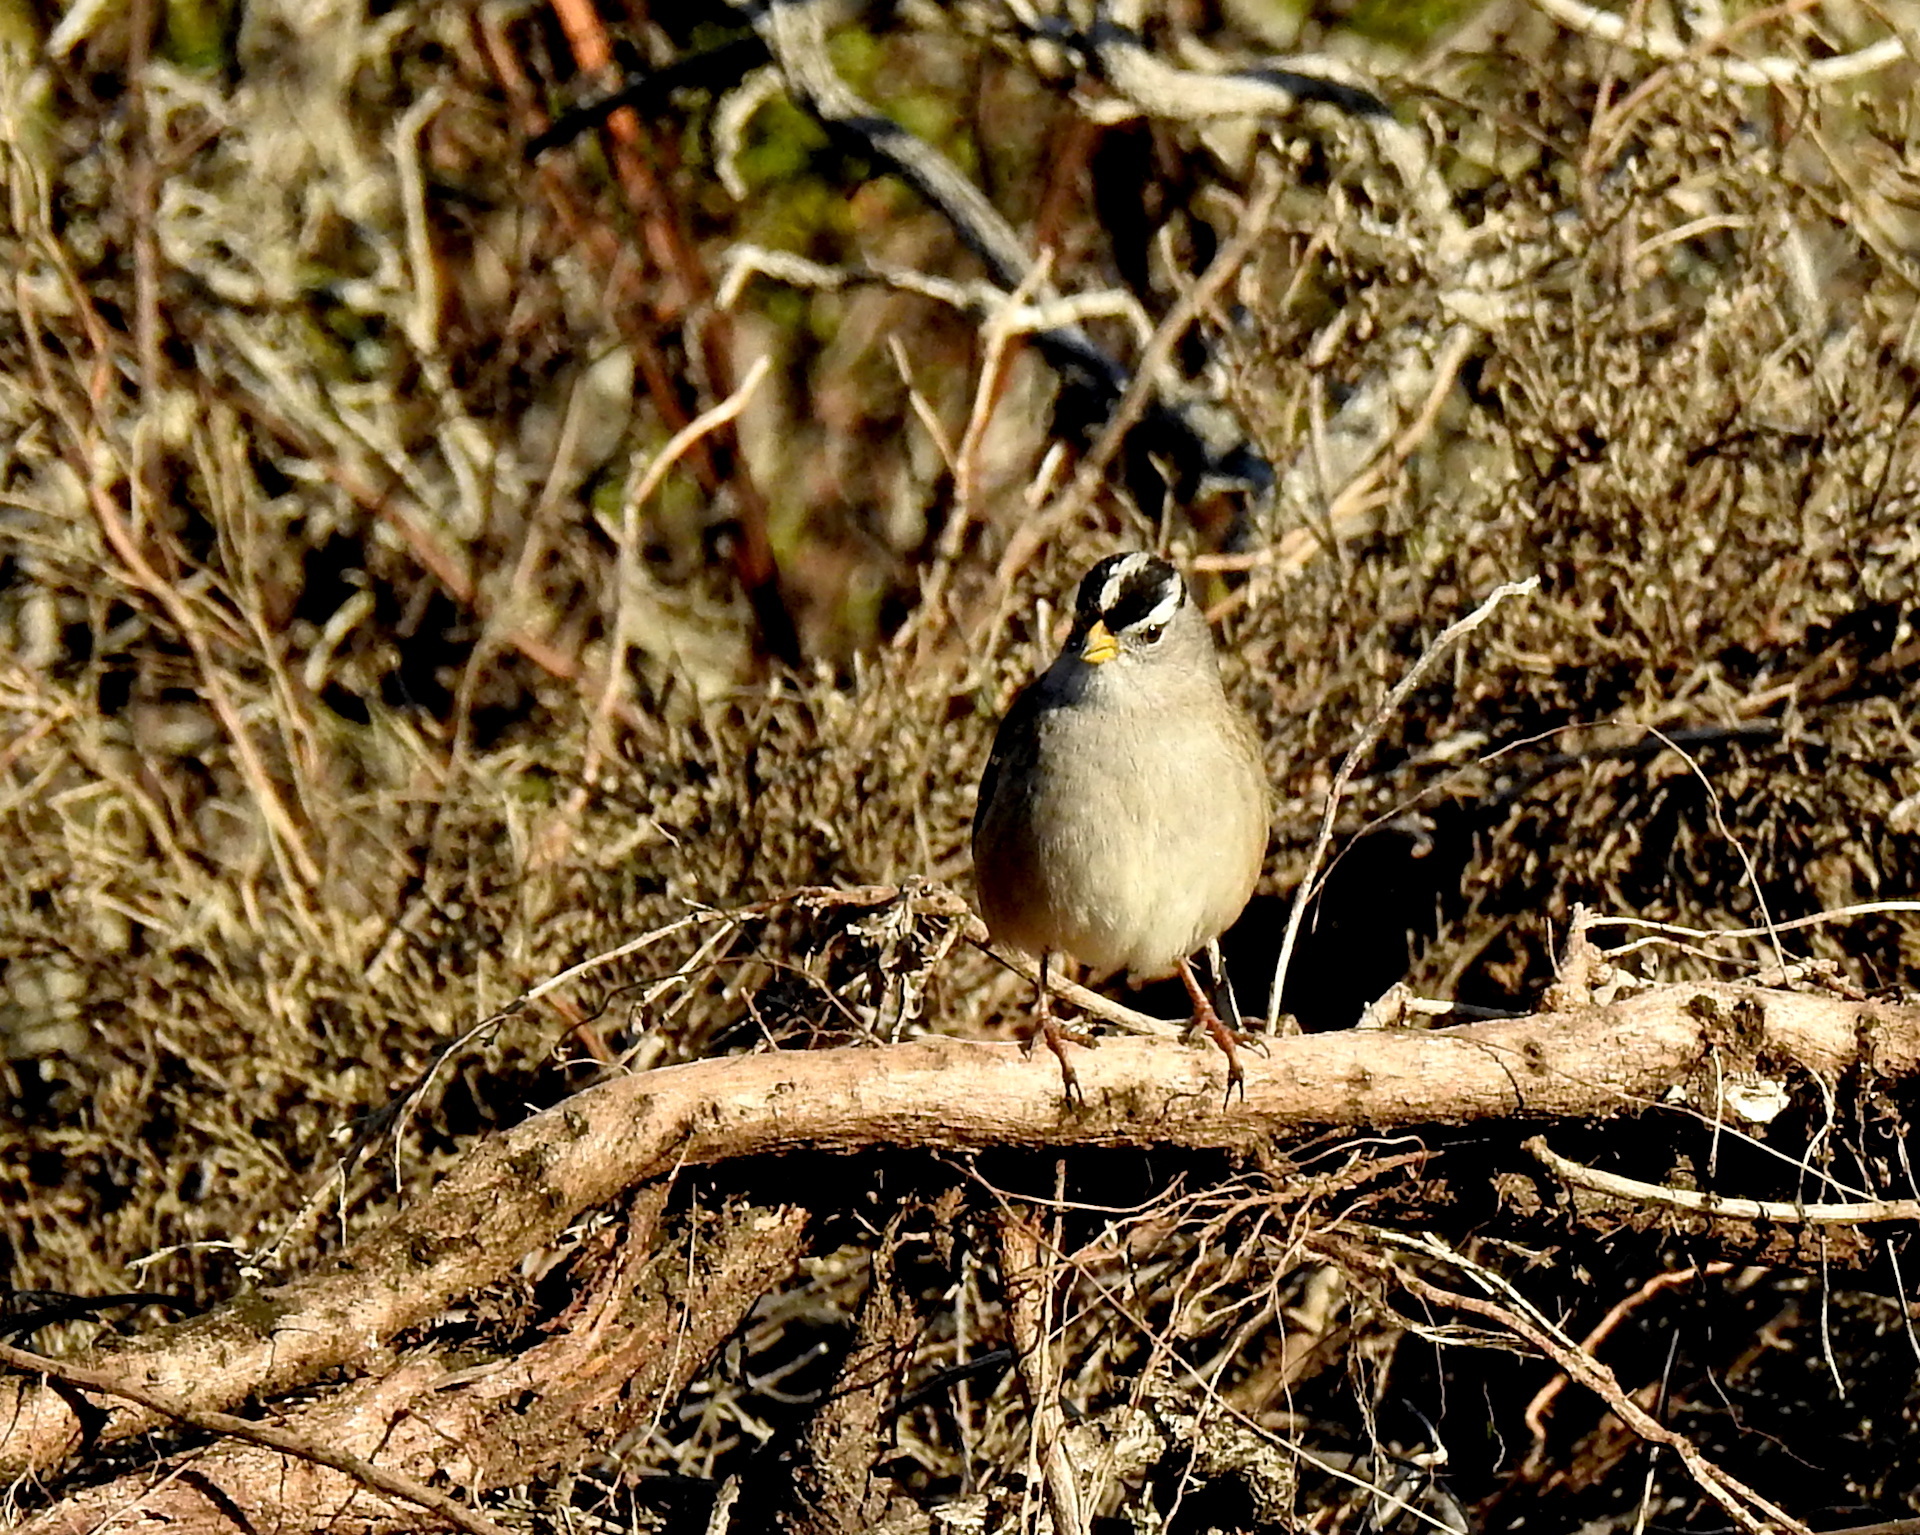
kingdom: Animalia
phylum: Chordata
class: Aves
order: Passeriformes
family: Passerellidae
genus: Zonotrichia
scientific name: Zonotrichia leucophrys
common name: White-crowned sparrow
